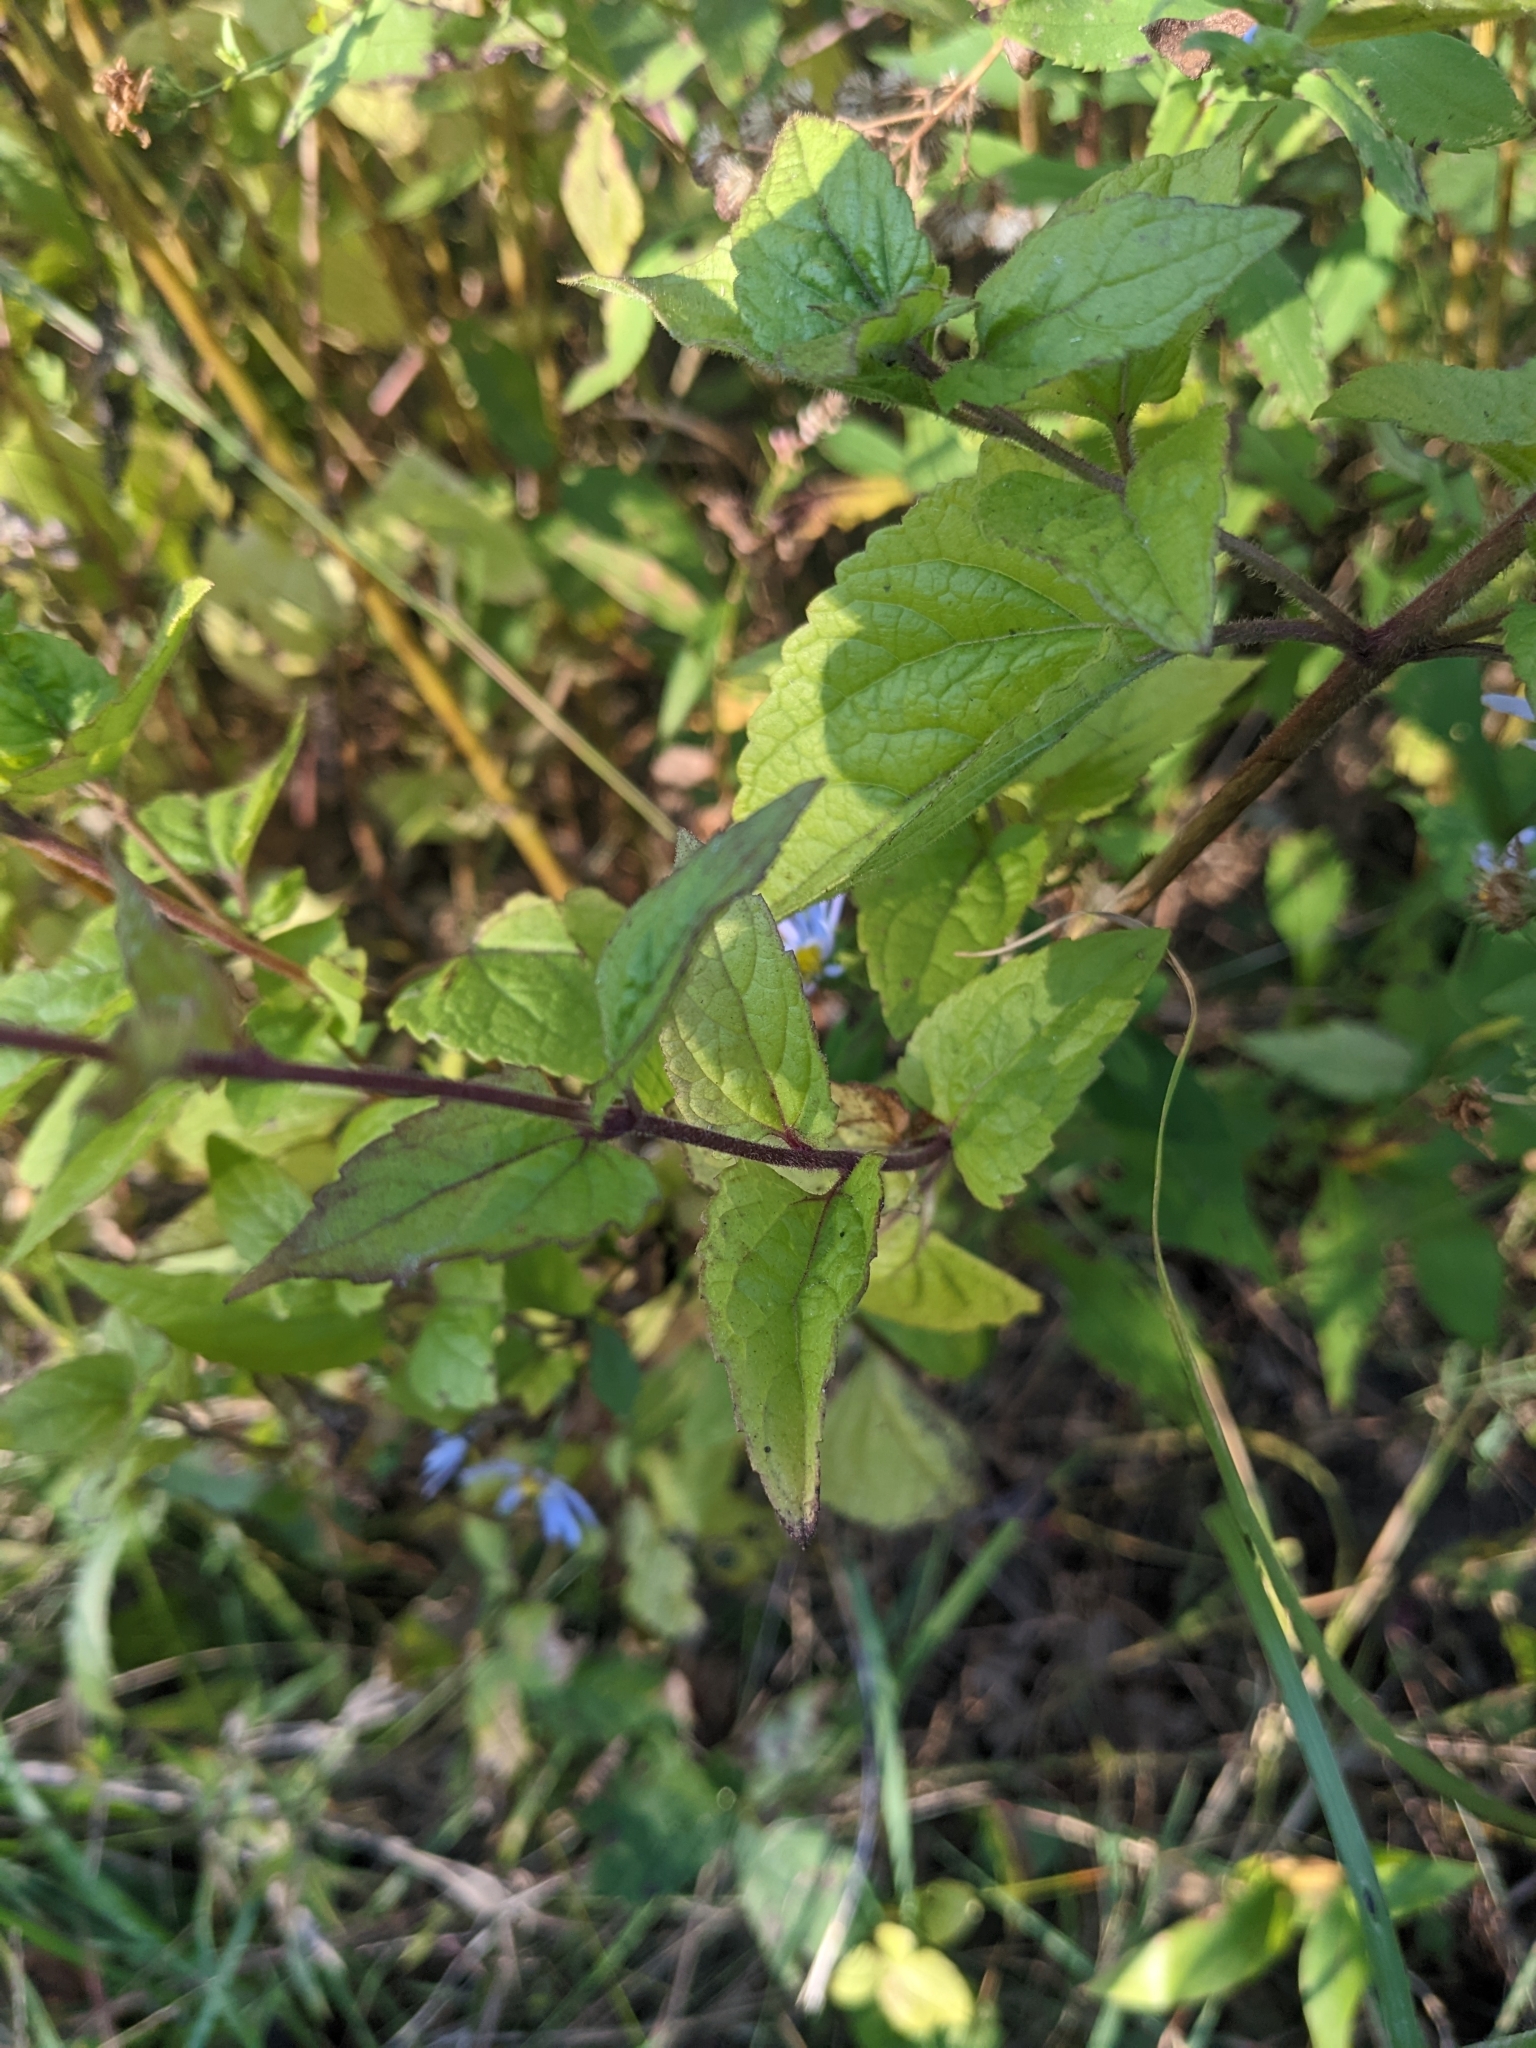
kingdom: Plantae
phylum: Tracheophyta
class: Magnoliopsida
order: Asterales
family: Asteraceae
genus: Conoclinium
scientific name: Conoclinium coelestinum
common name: Blue mistflower
